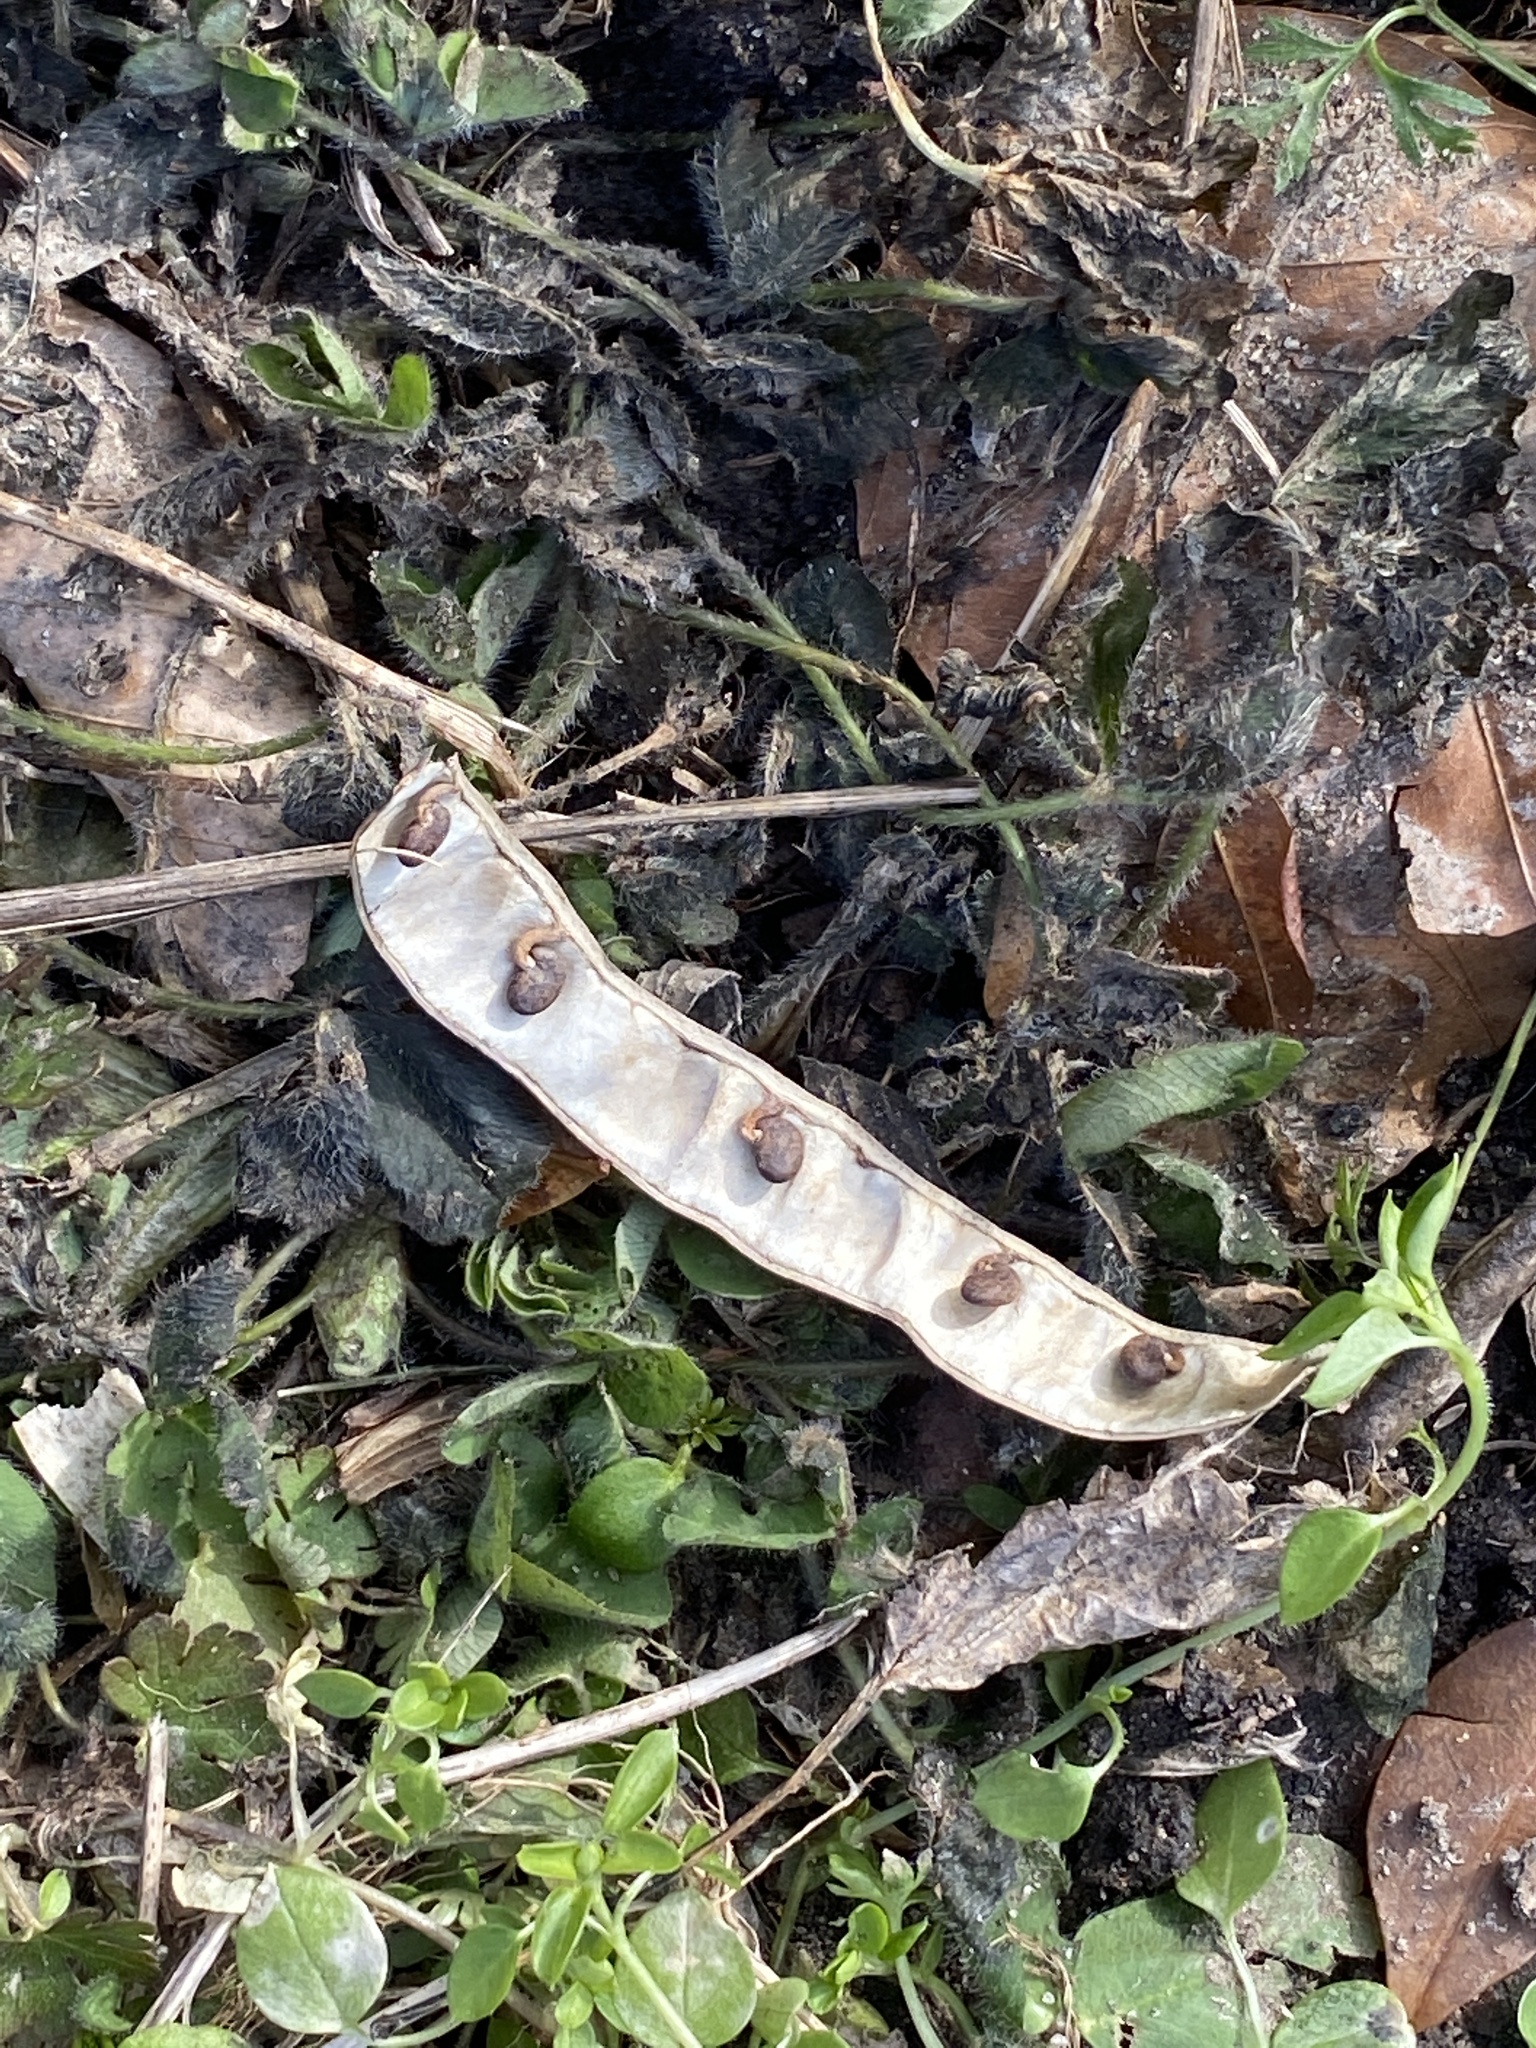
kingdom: Plantae
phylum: Tracheophyta
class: Magnoliopsida
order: Fabales
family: Fabaceae
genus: Robinia
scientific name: Robinia pseudoacacia
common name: Black locust
